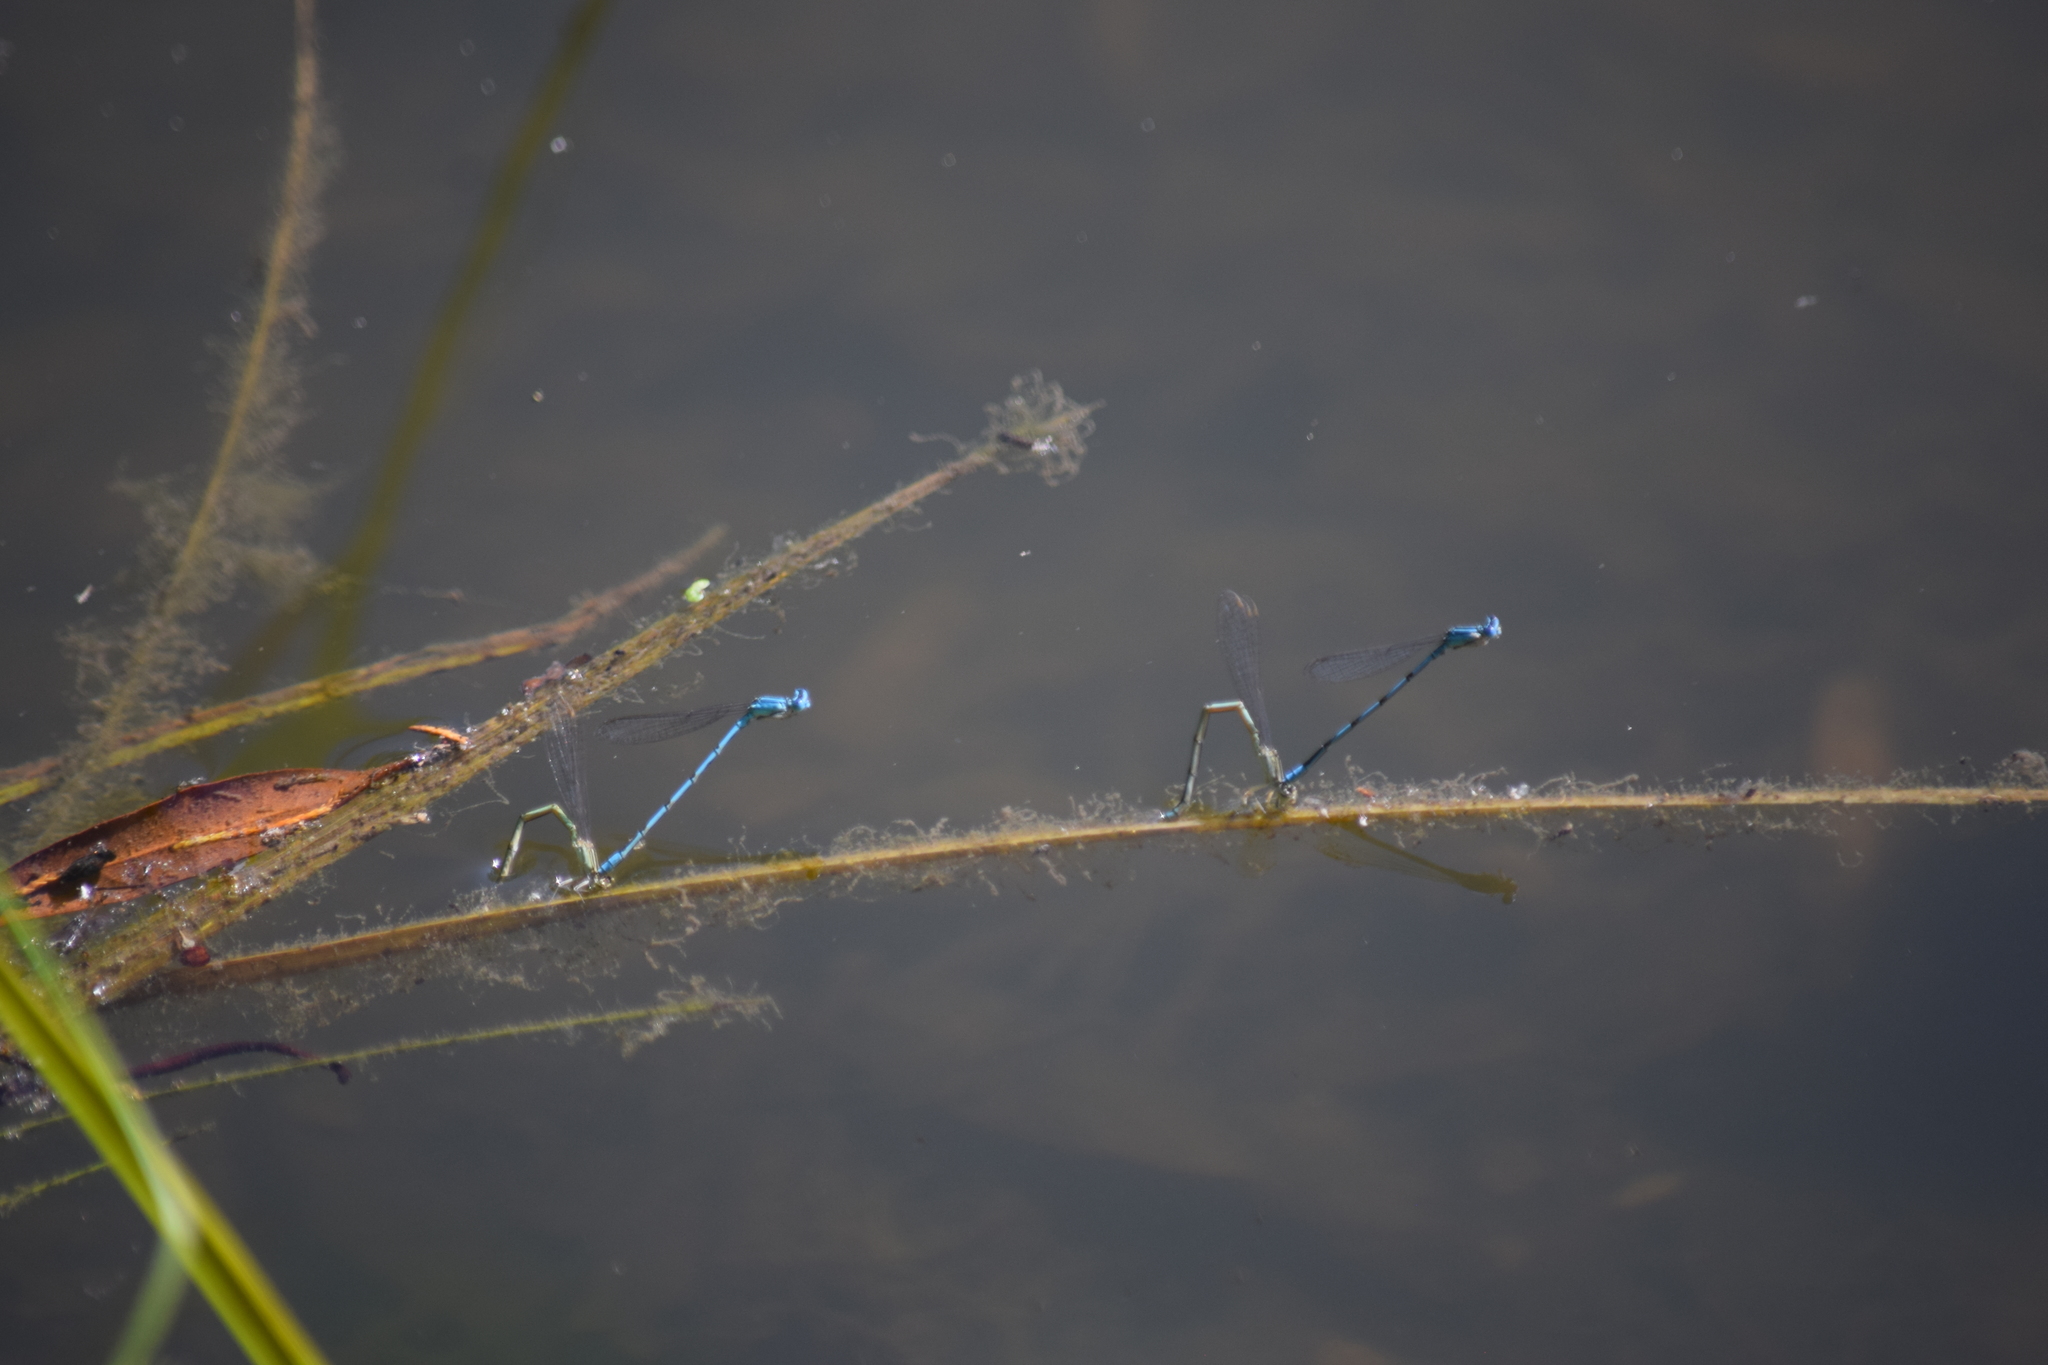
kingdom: Animalia
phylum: Arthropoda
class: Insecta
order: Odonata
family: Coenagrionidae
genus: Enallagma
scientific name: Enallagma basidens
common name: Double-striped bluet
